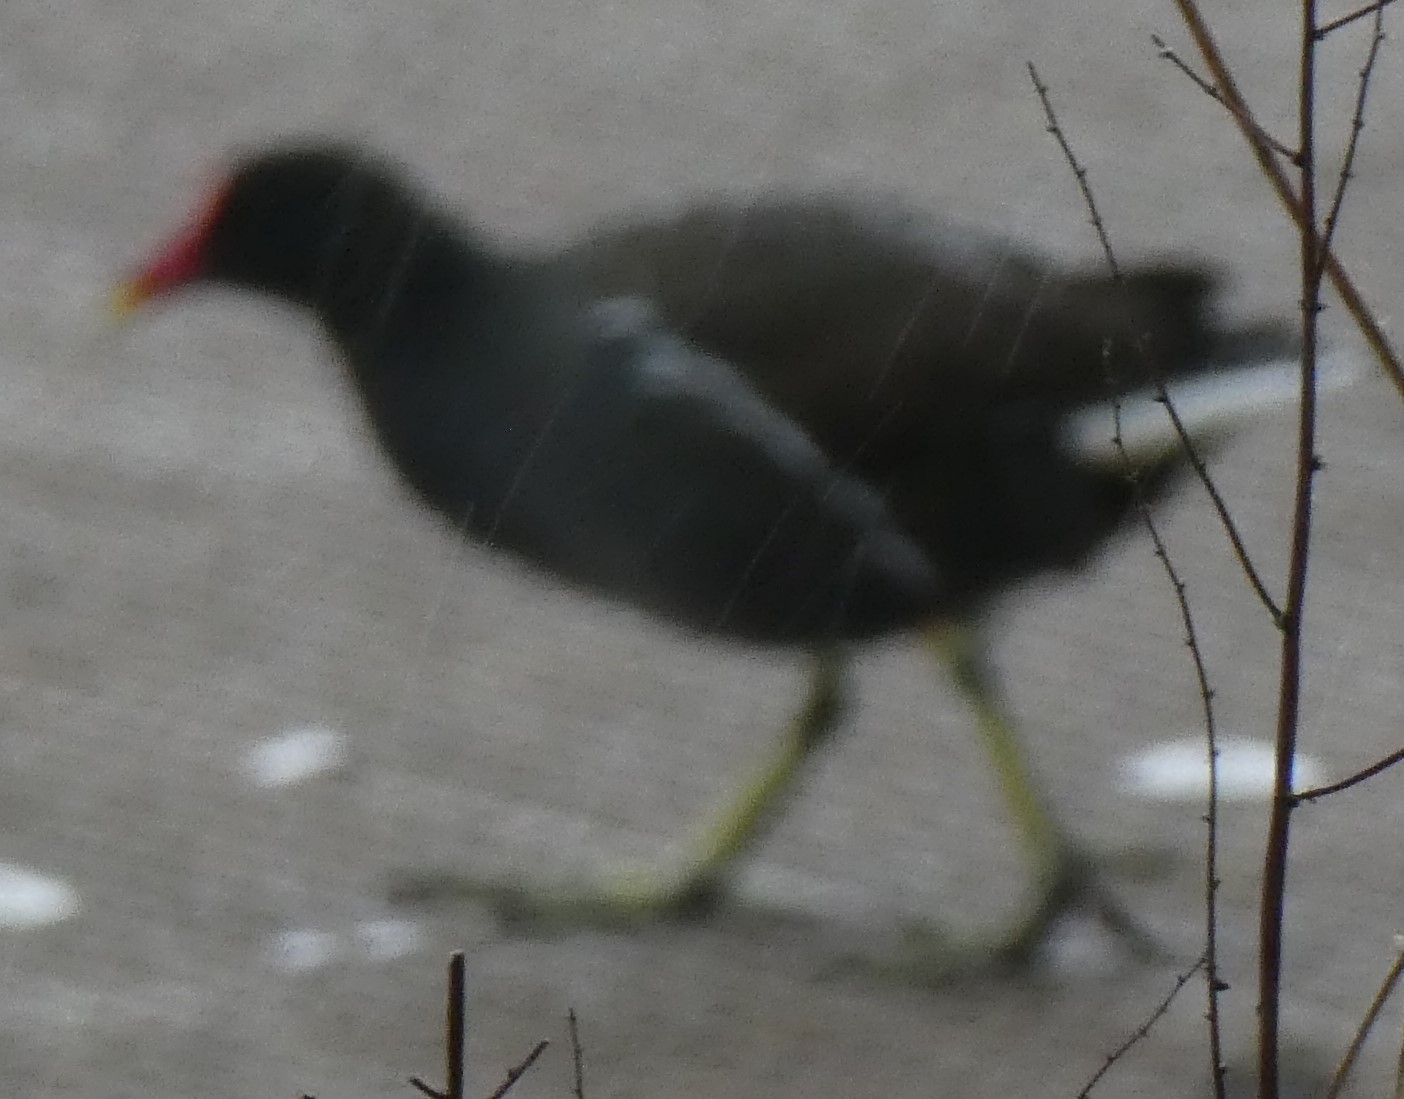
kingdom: Animalia
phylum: Chordata
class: Aves
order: Gruiformes
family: Rallidae
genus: Gallinula
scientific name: Gallinula chloropus
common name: Common moorhen
